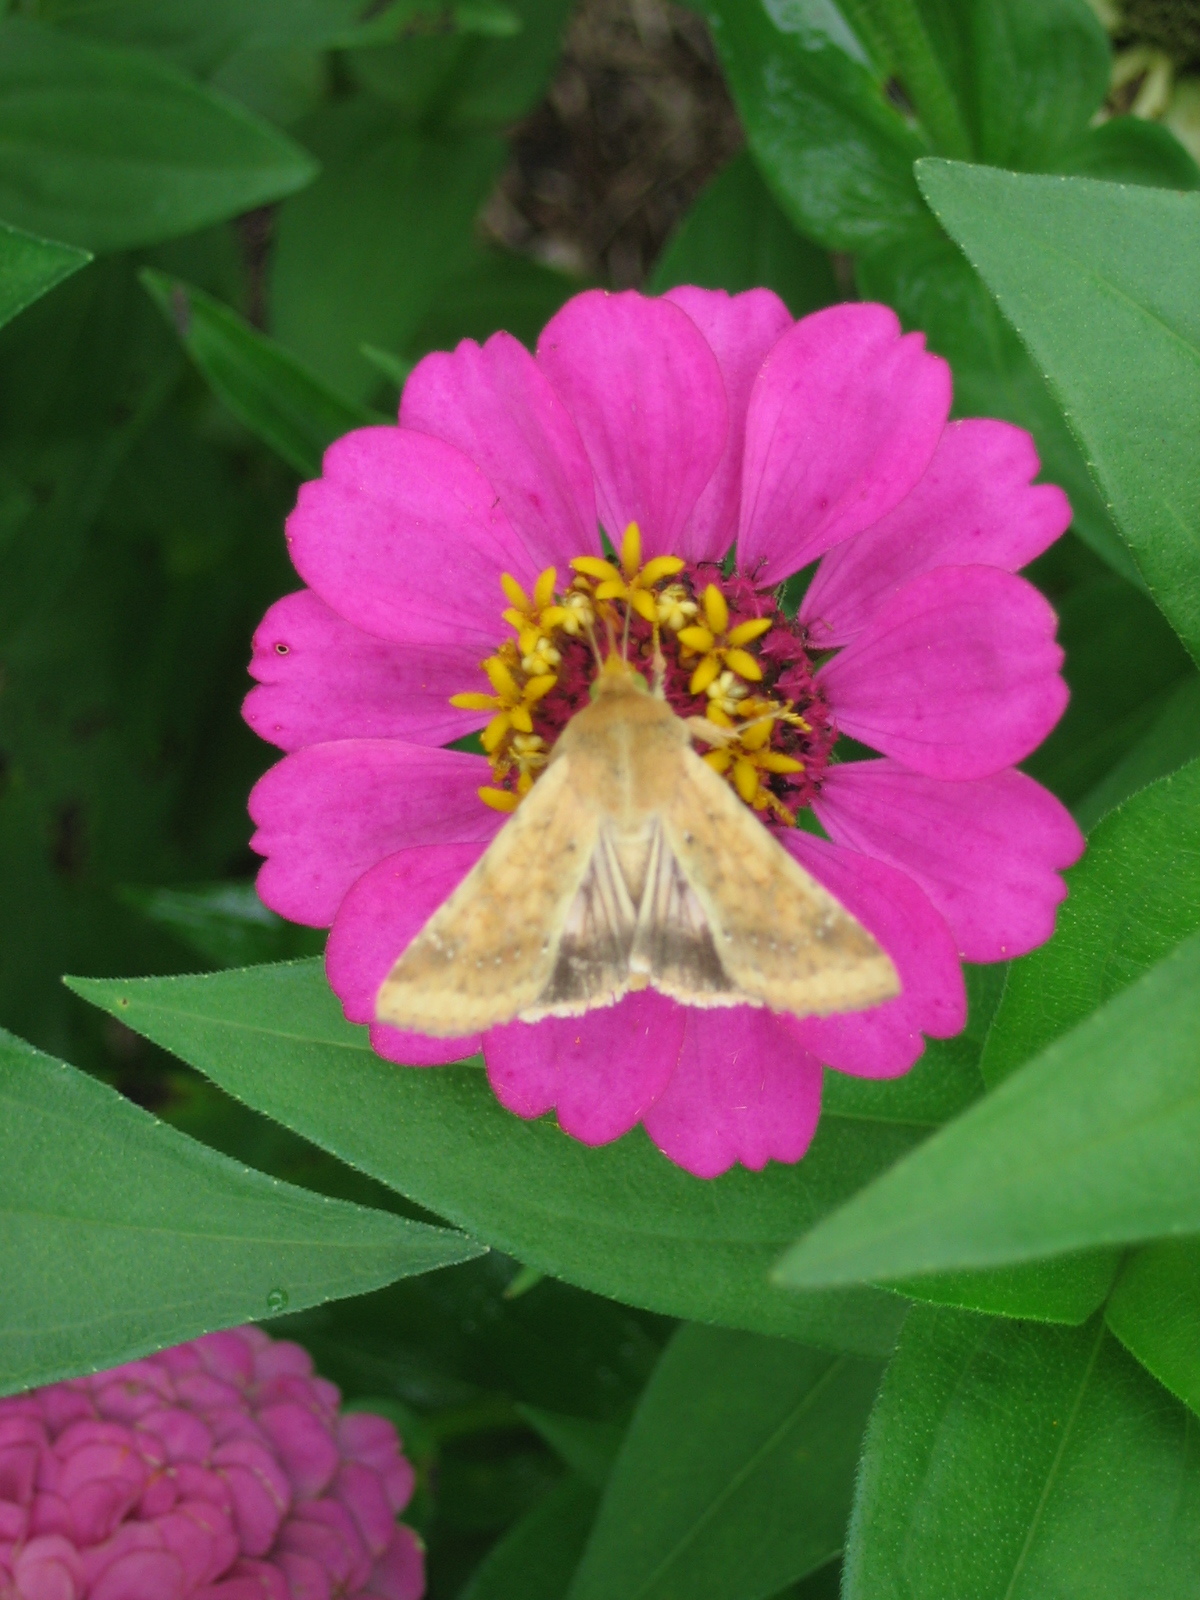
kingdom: Animalia
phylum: Arthropoda
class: Insecta
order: Lepidoptera
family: Noctuidae
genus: Helicoverpa
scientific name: Helicoverpa zea
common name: Bollworm
